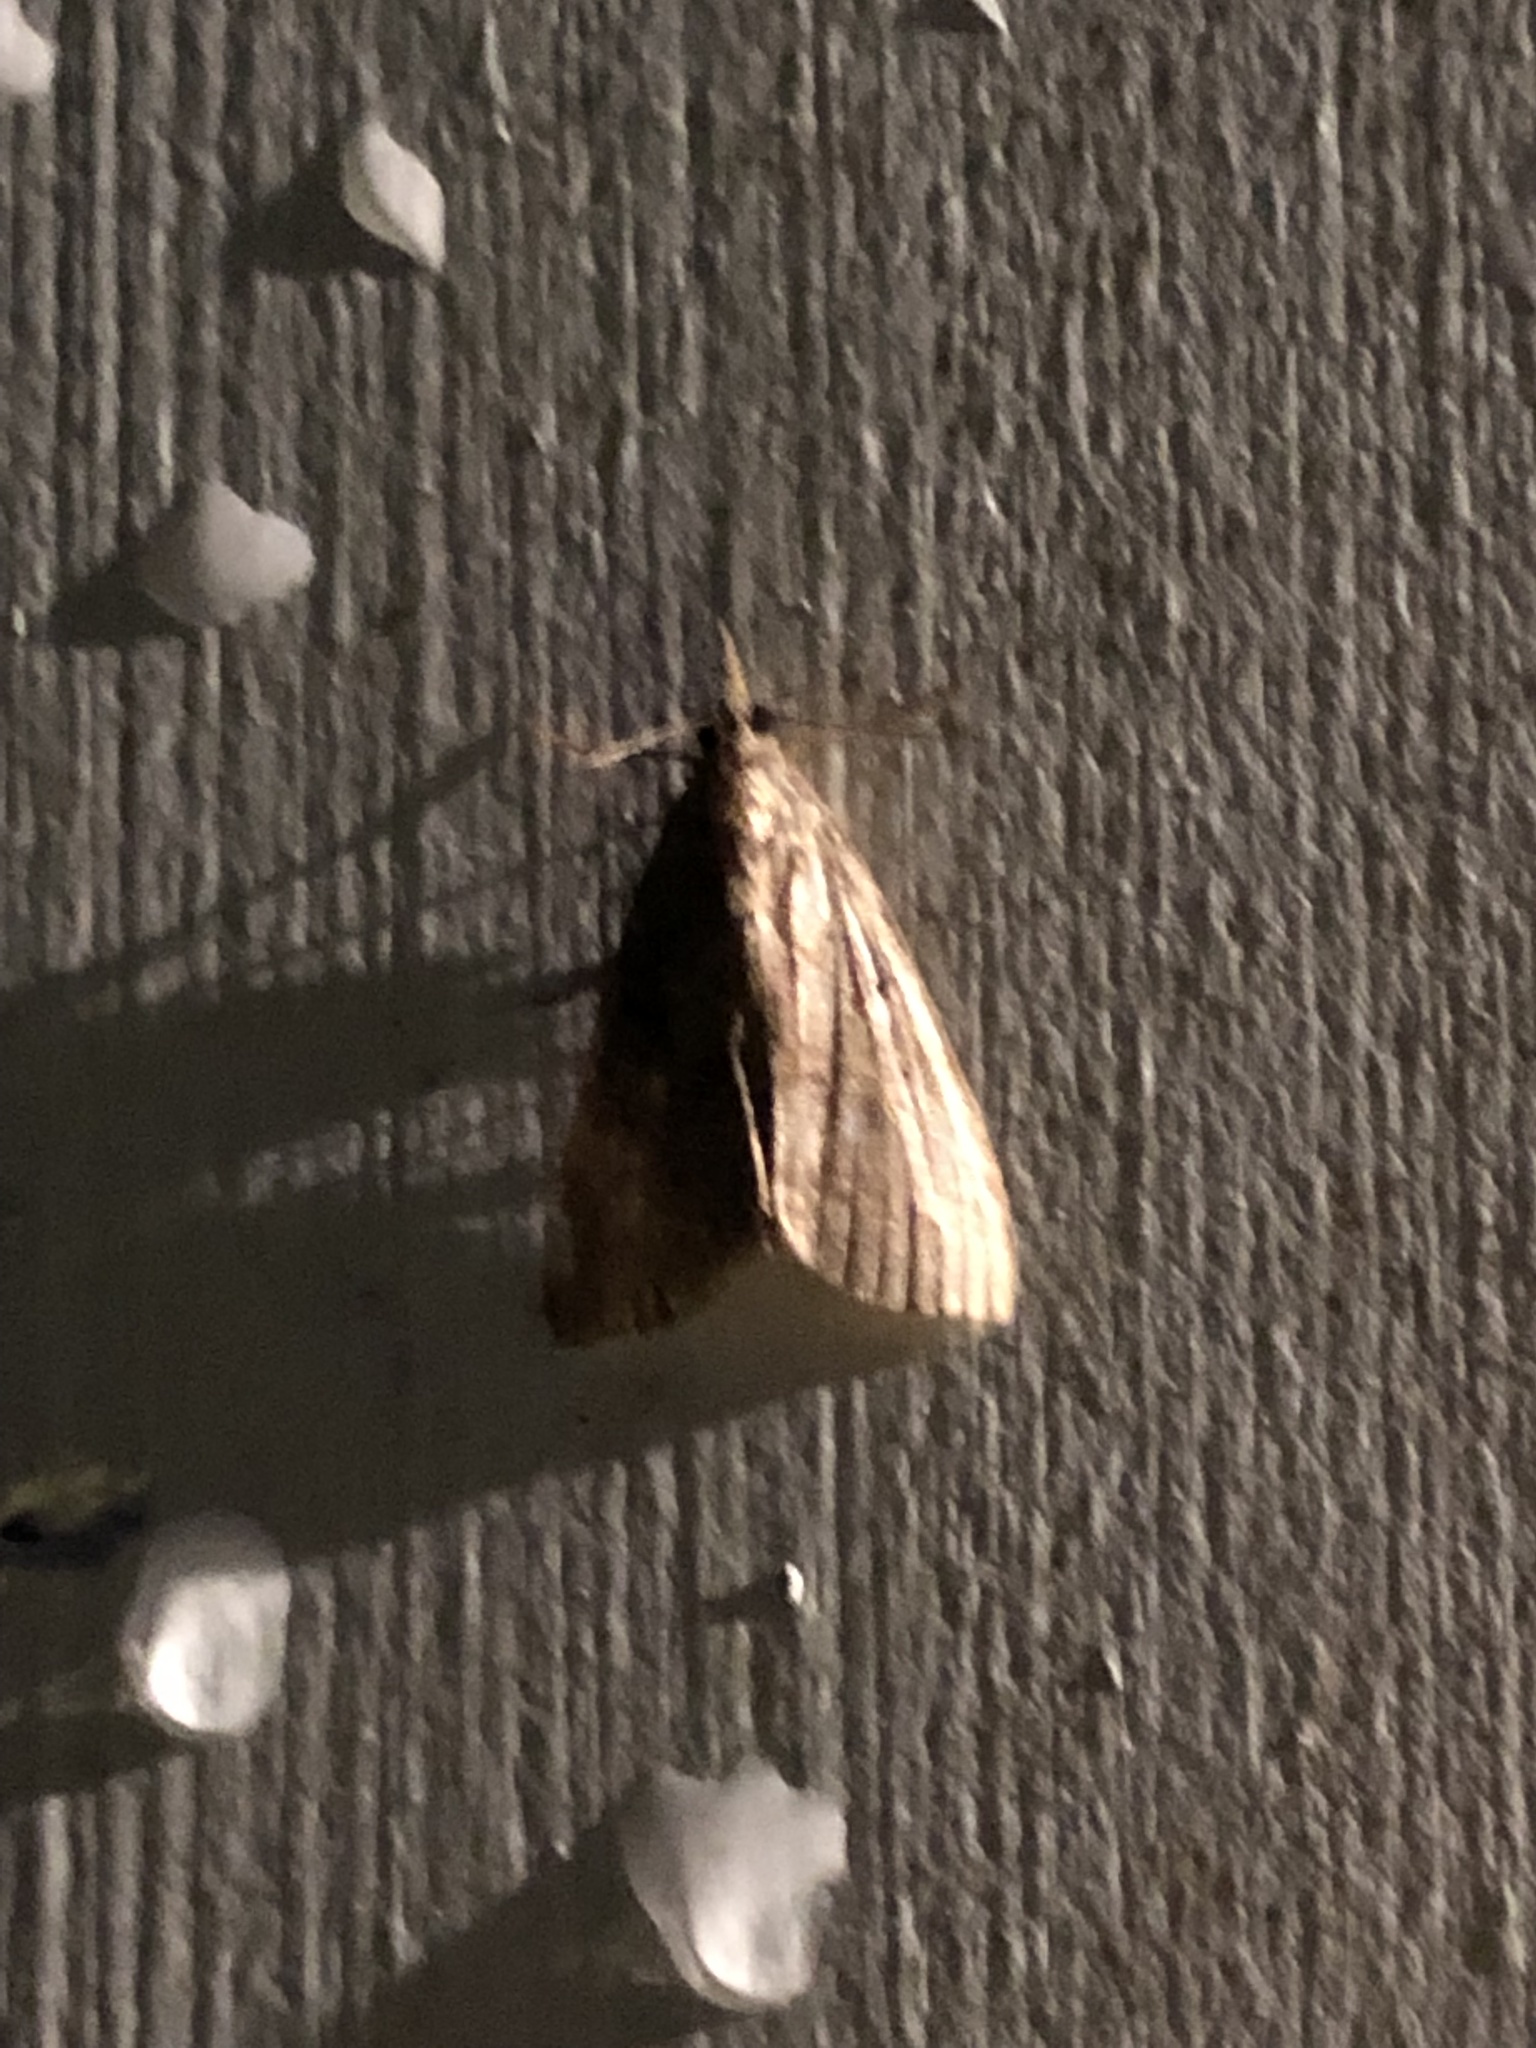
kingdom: Animalia
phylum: Arthropoda
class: Insecta
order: Lepidoptera
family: Erebidae
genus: Hypena
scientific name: Hypena scabra
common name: Green cloverworm
